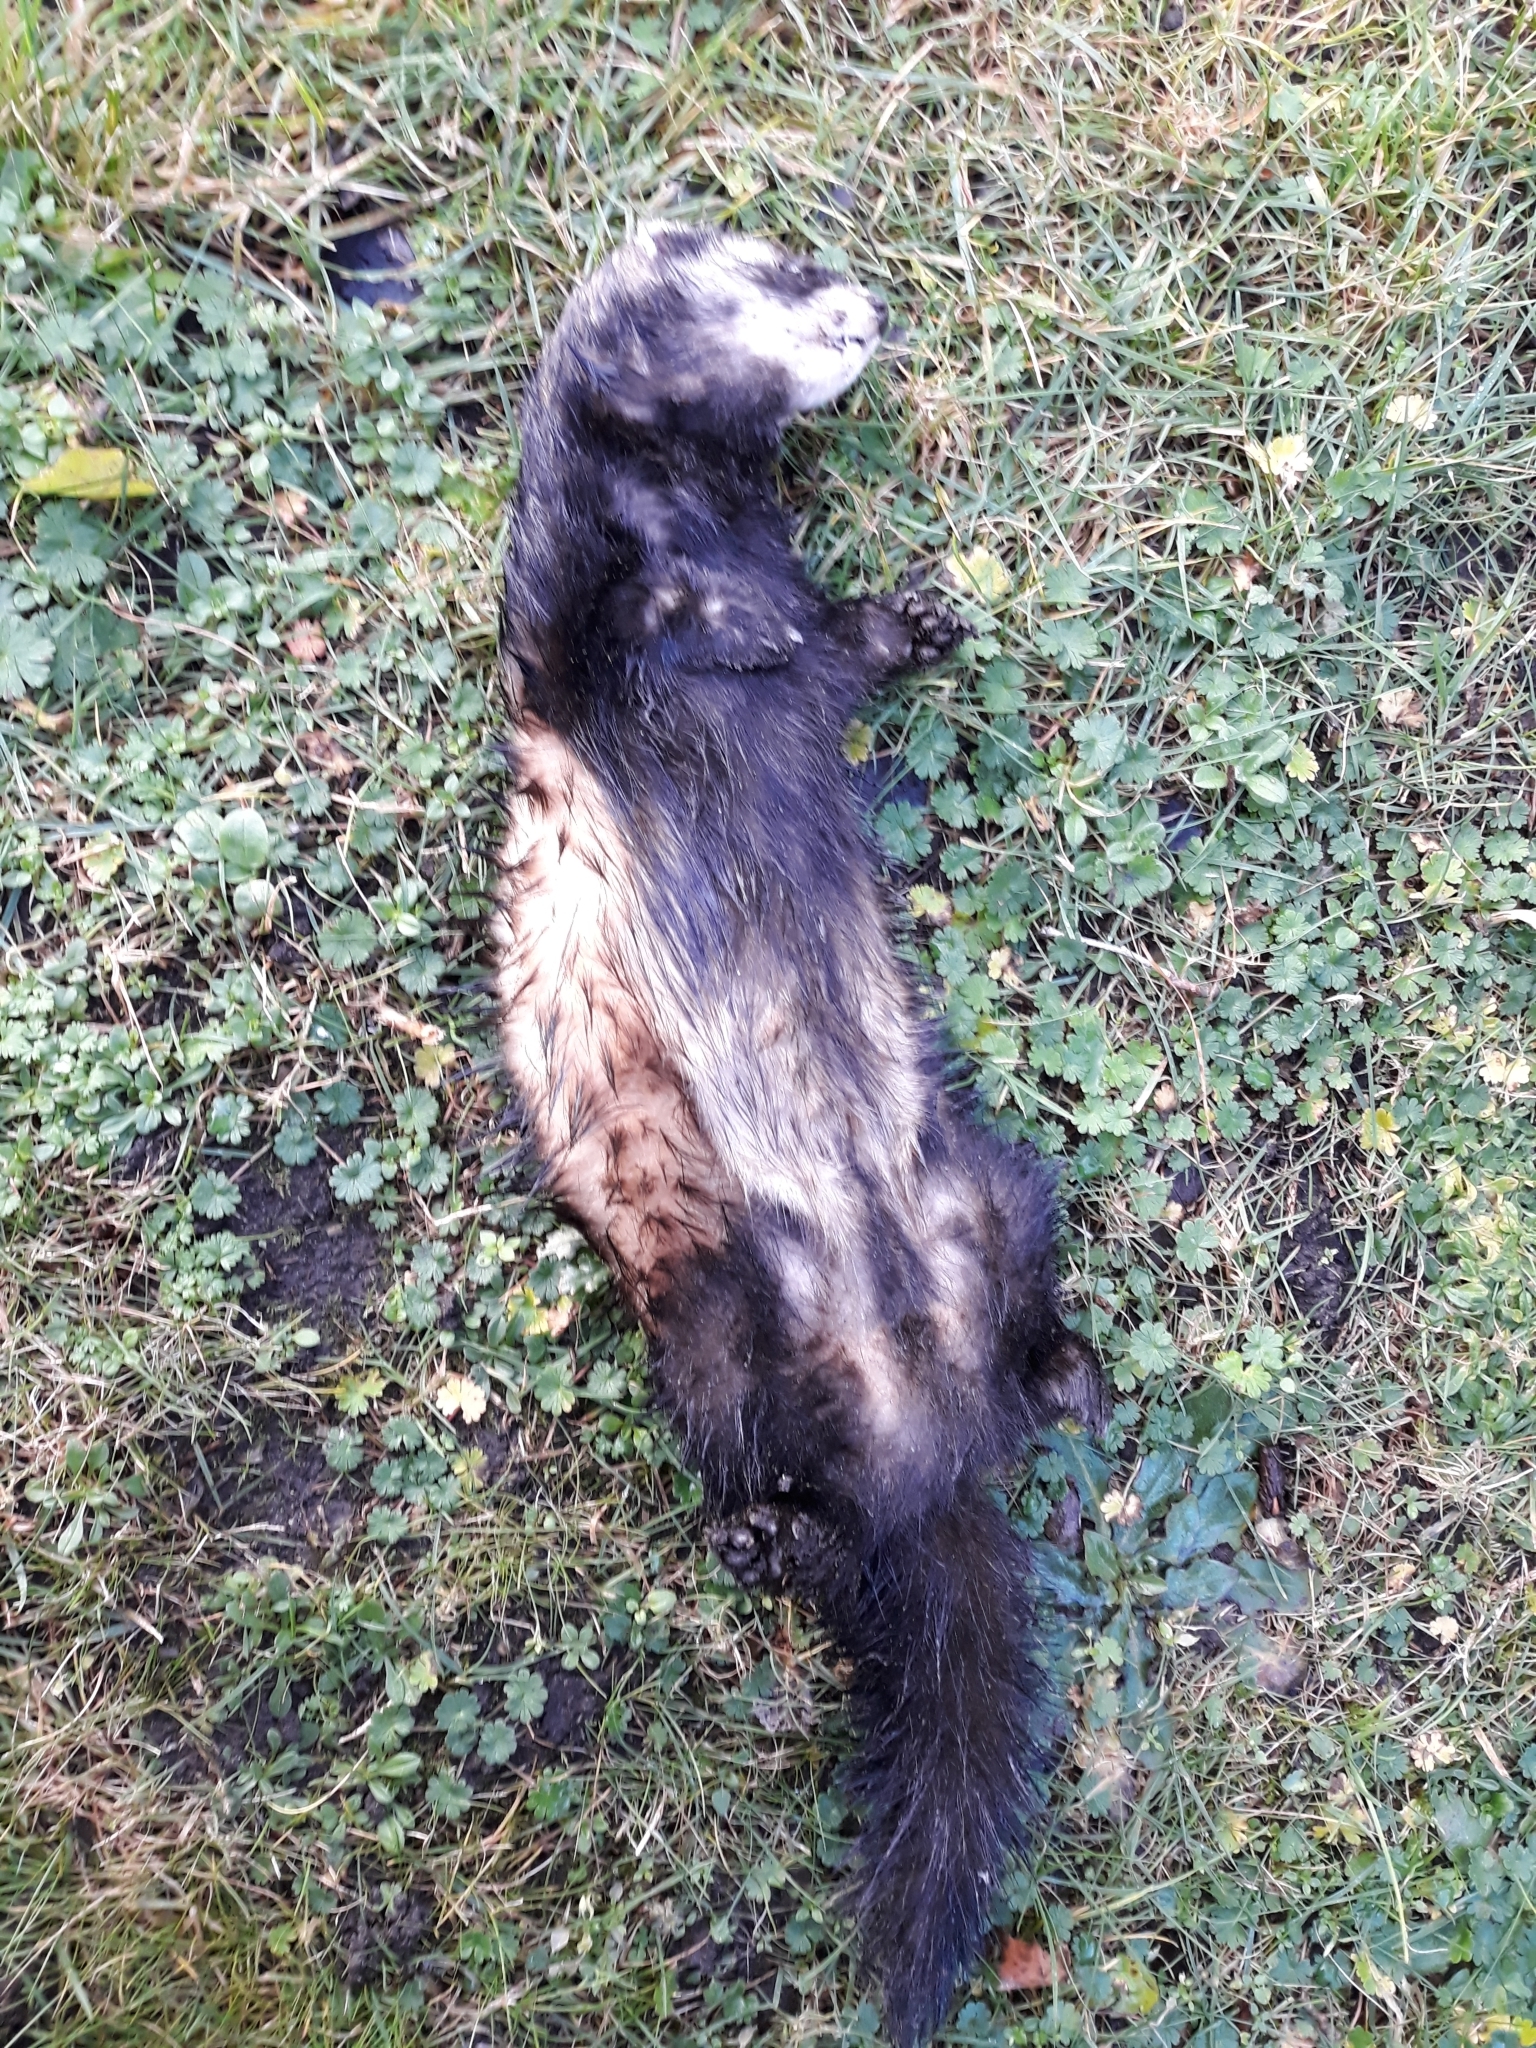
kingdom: Animalia
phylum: Chordata
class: Mammalia
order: Carnivora
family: Mustelidae
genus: Mustela
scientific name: Mustela putorius
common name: European polecat
